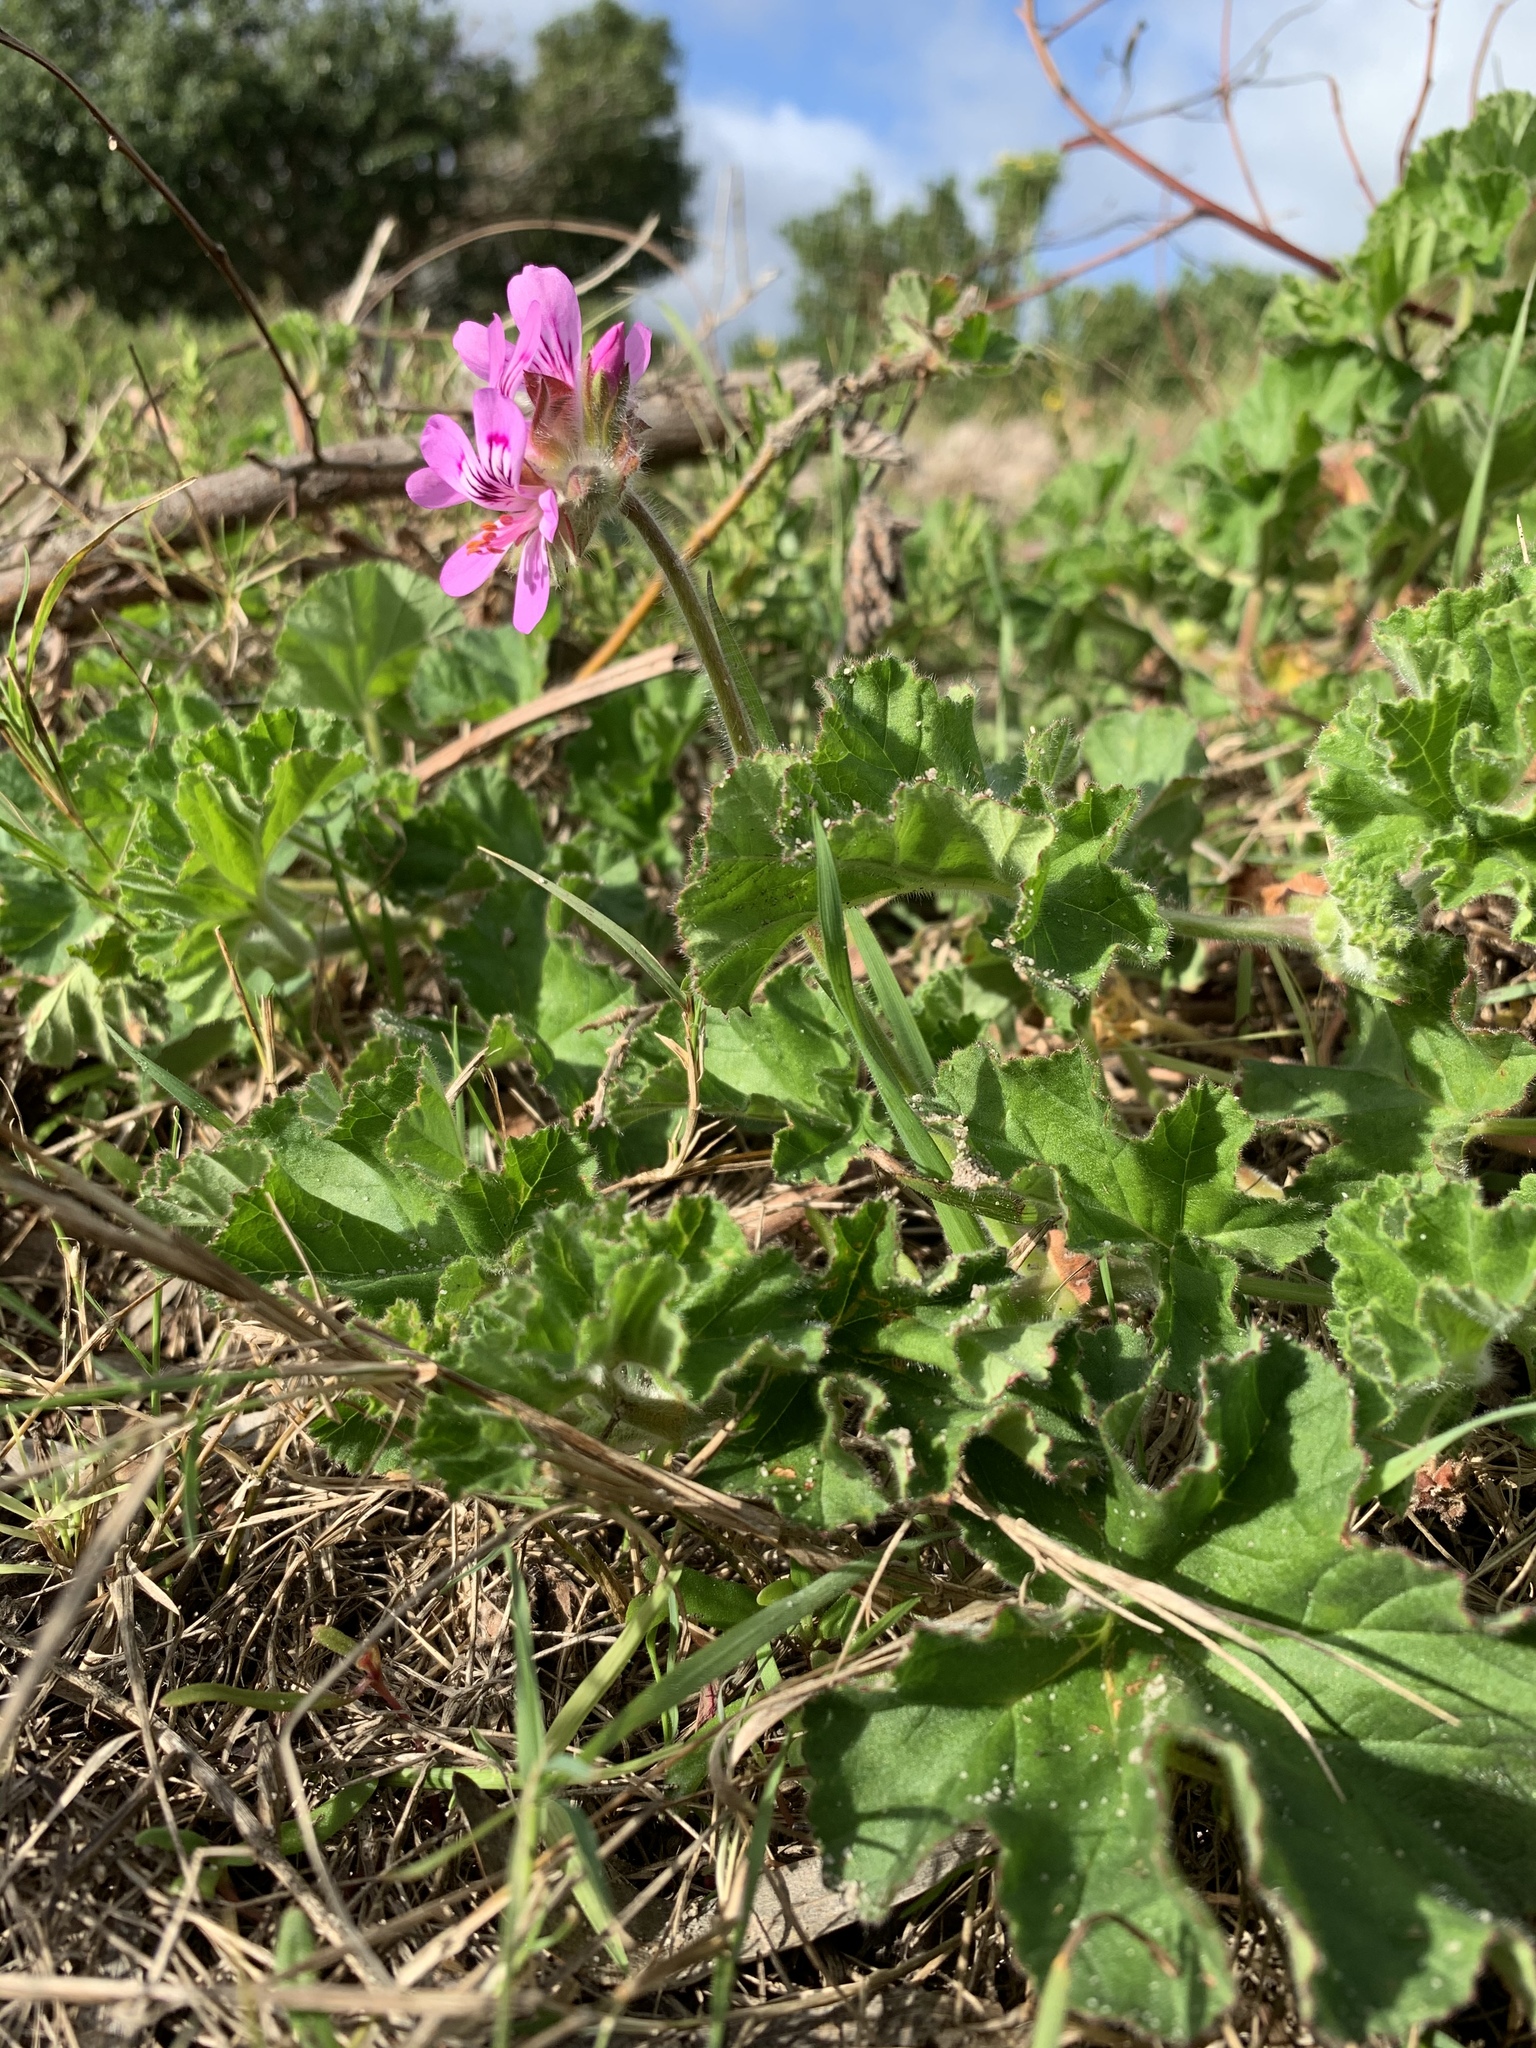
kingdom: Plantae
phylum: Tracheophyta
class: Magnoliopsida
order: Geraniales
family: Geraniaceae
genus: Pelargonium
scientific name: Pelargonium capitatum
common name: Rose scented geranium
